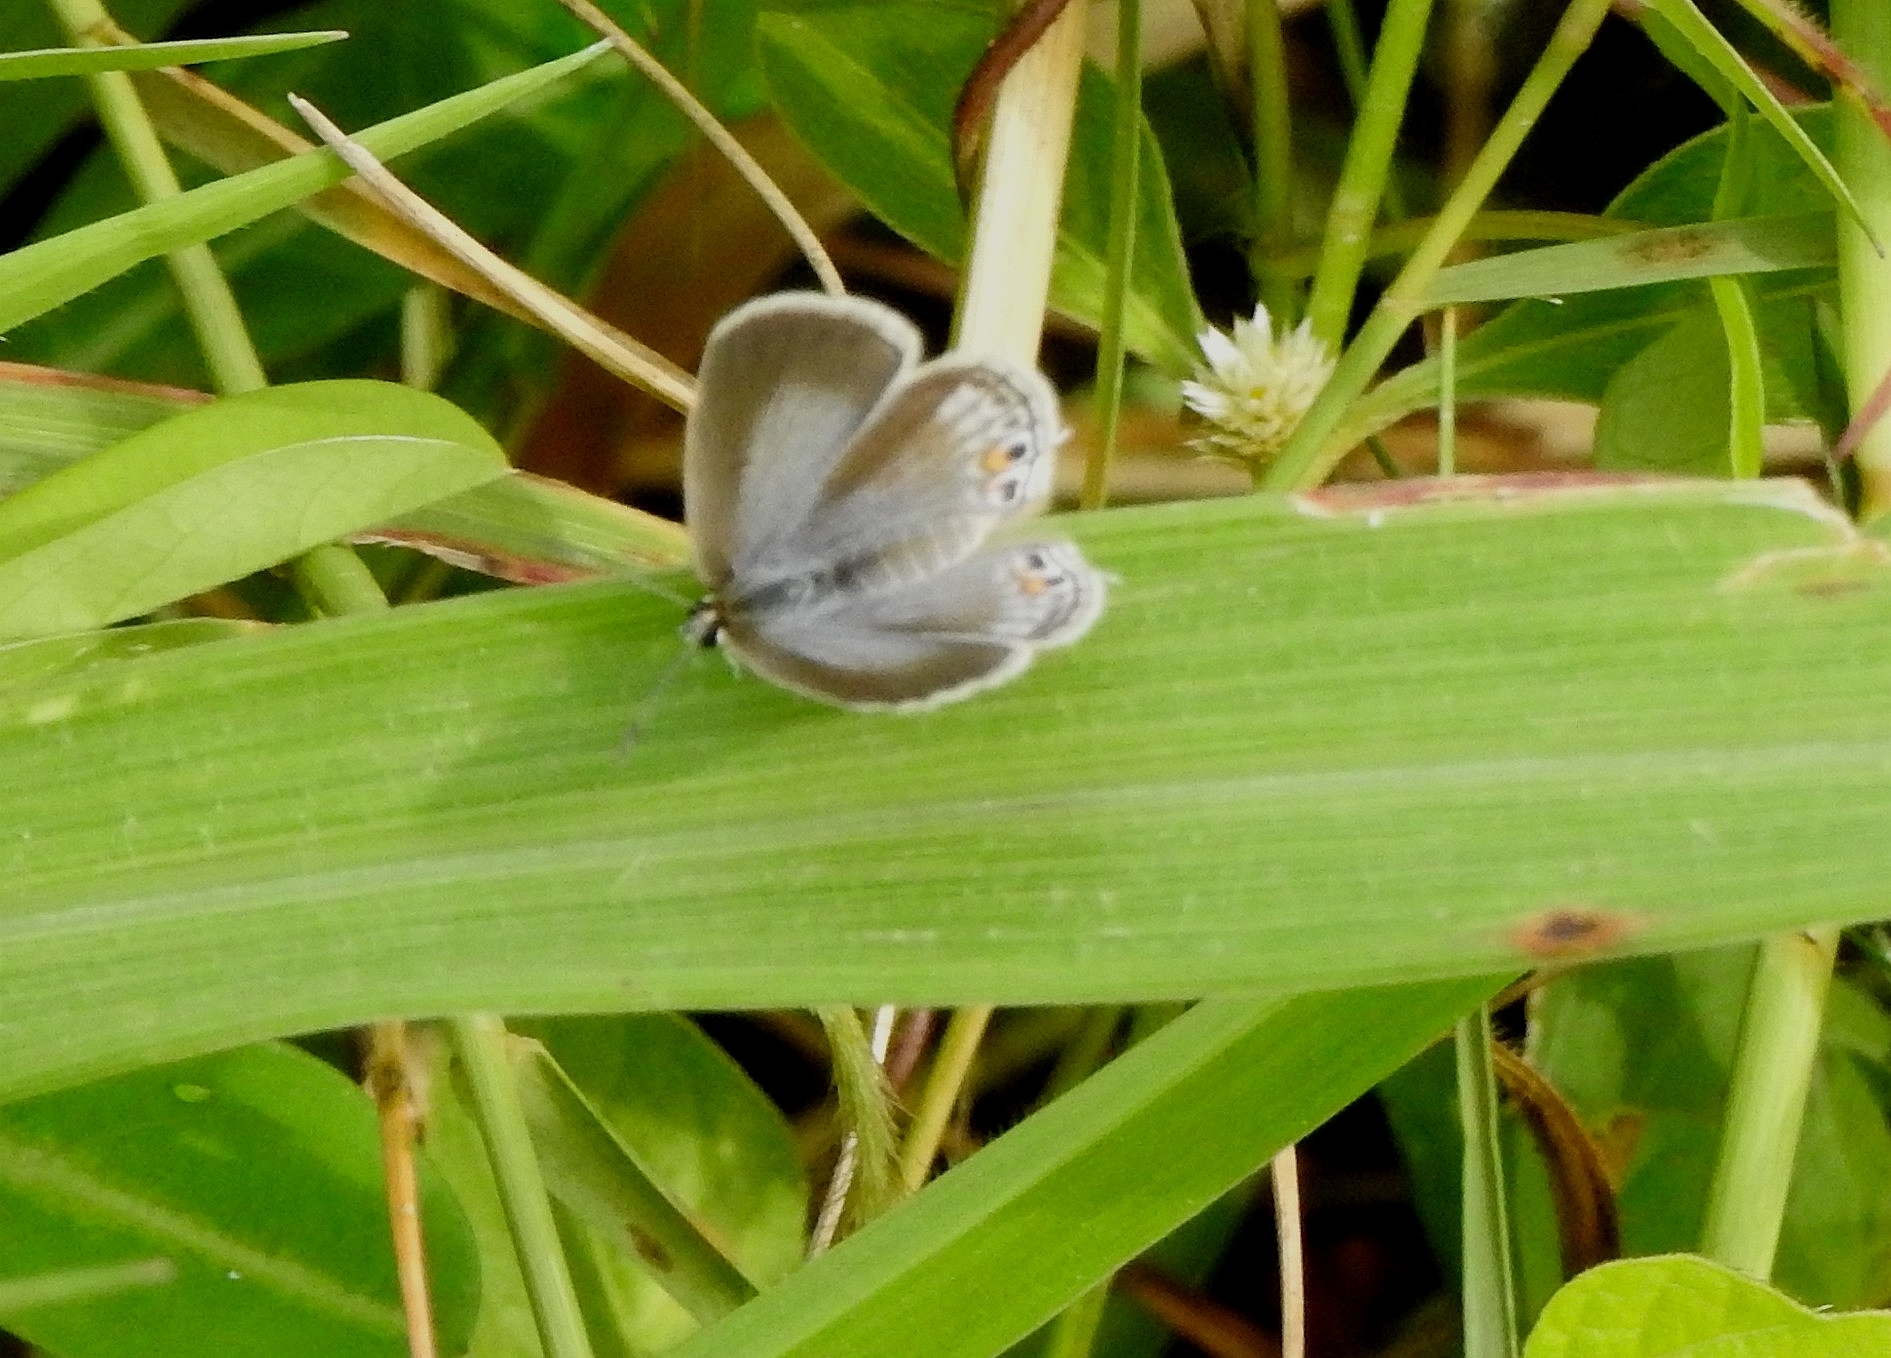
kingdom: Animalia
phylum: Arthropoda
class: Insecta
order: Lepidoptera
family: Lycaenidae
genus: Euchrysops
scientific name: Euchrysops cnejus
